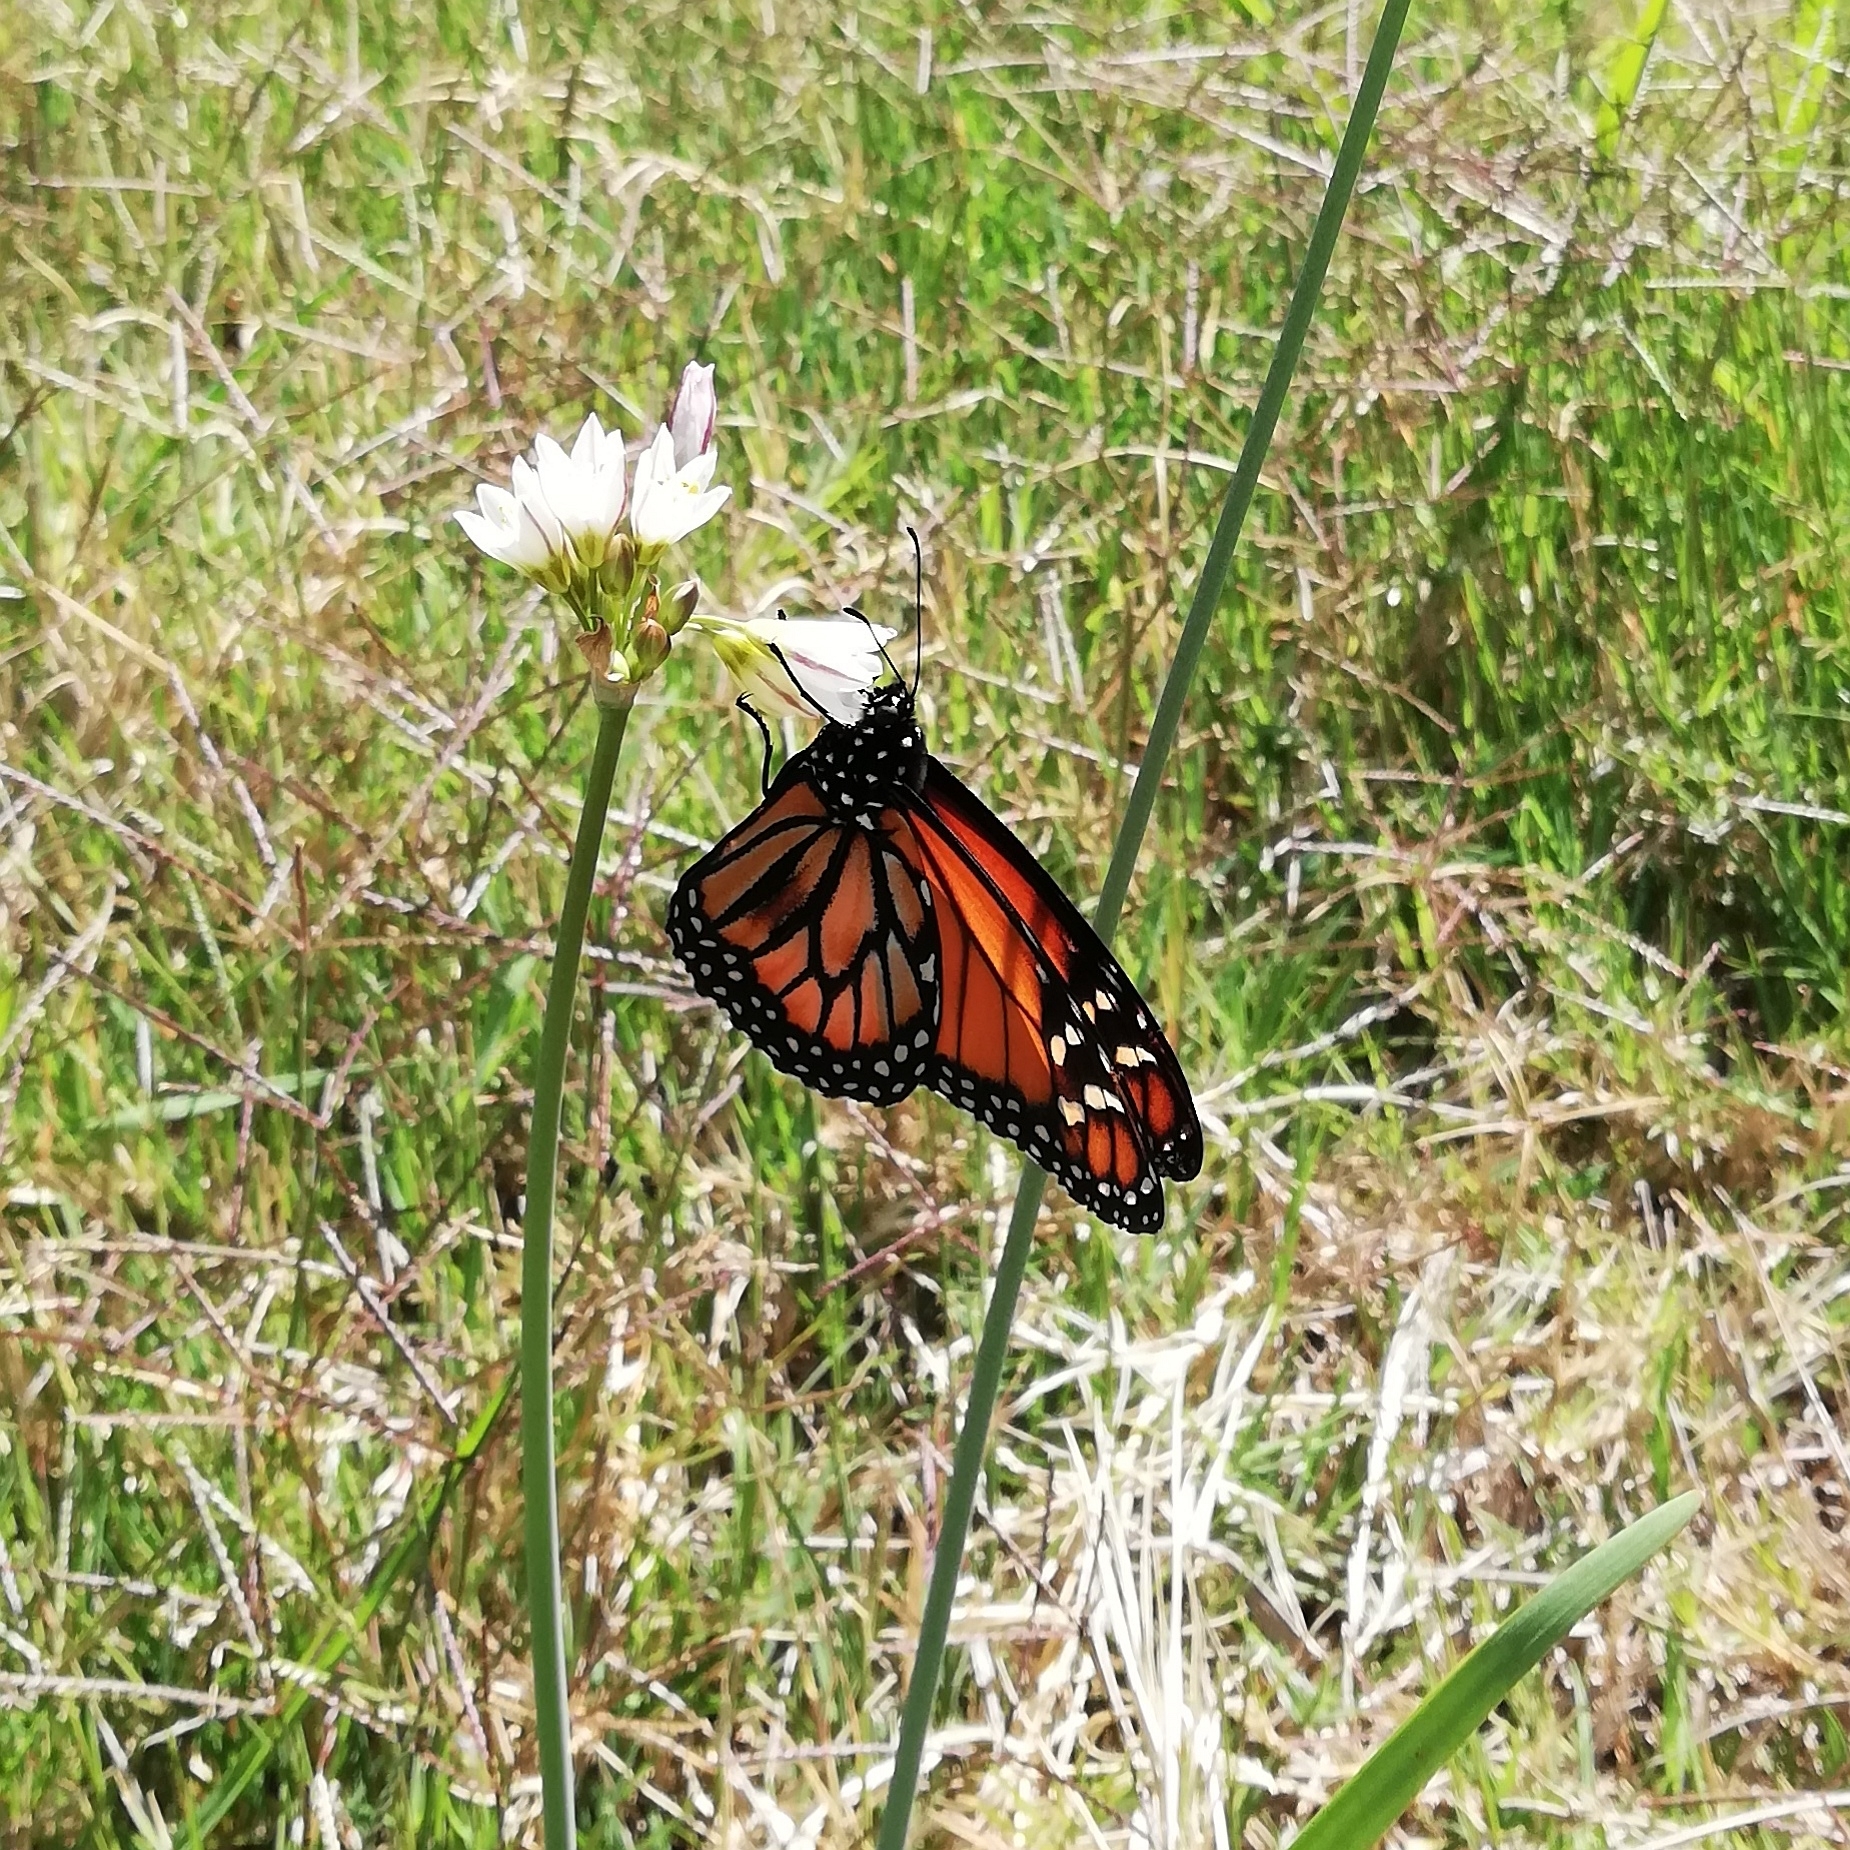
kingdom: Animalia
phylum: Arthropoda
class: Insecta
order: Lepidoptera
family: Nymphalidae
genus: Danaus
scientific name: Danaus erippus
